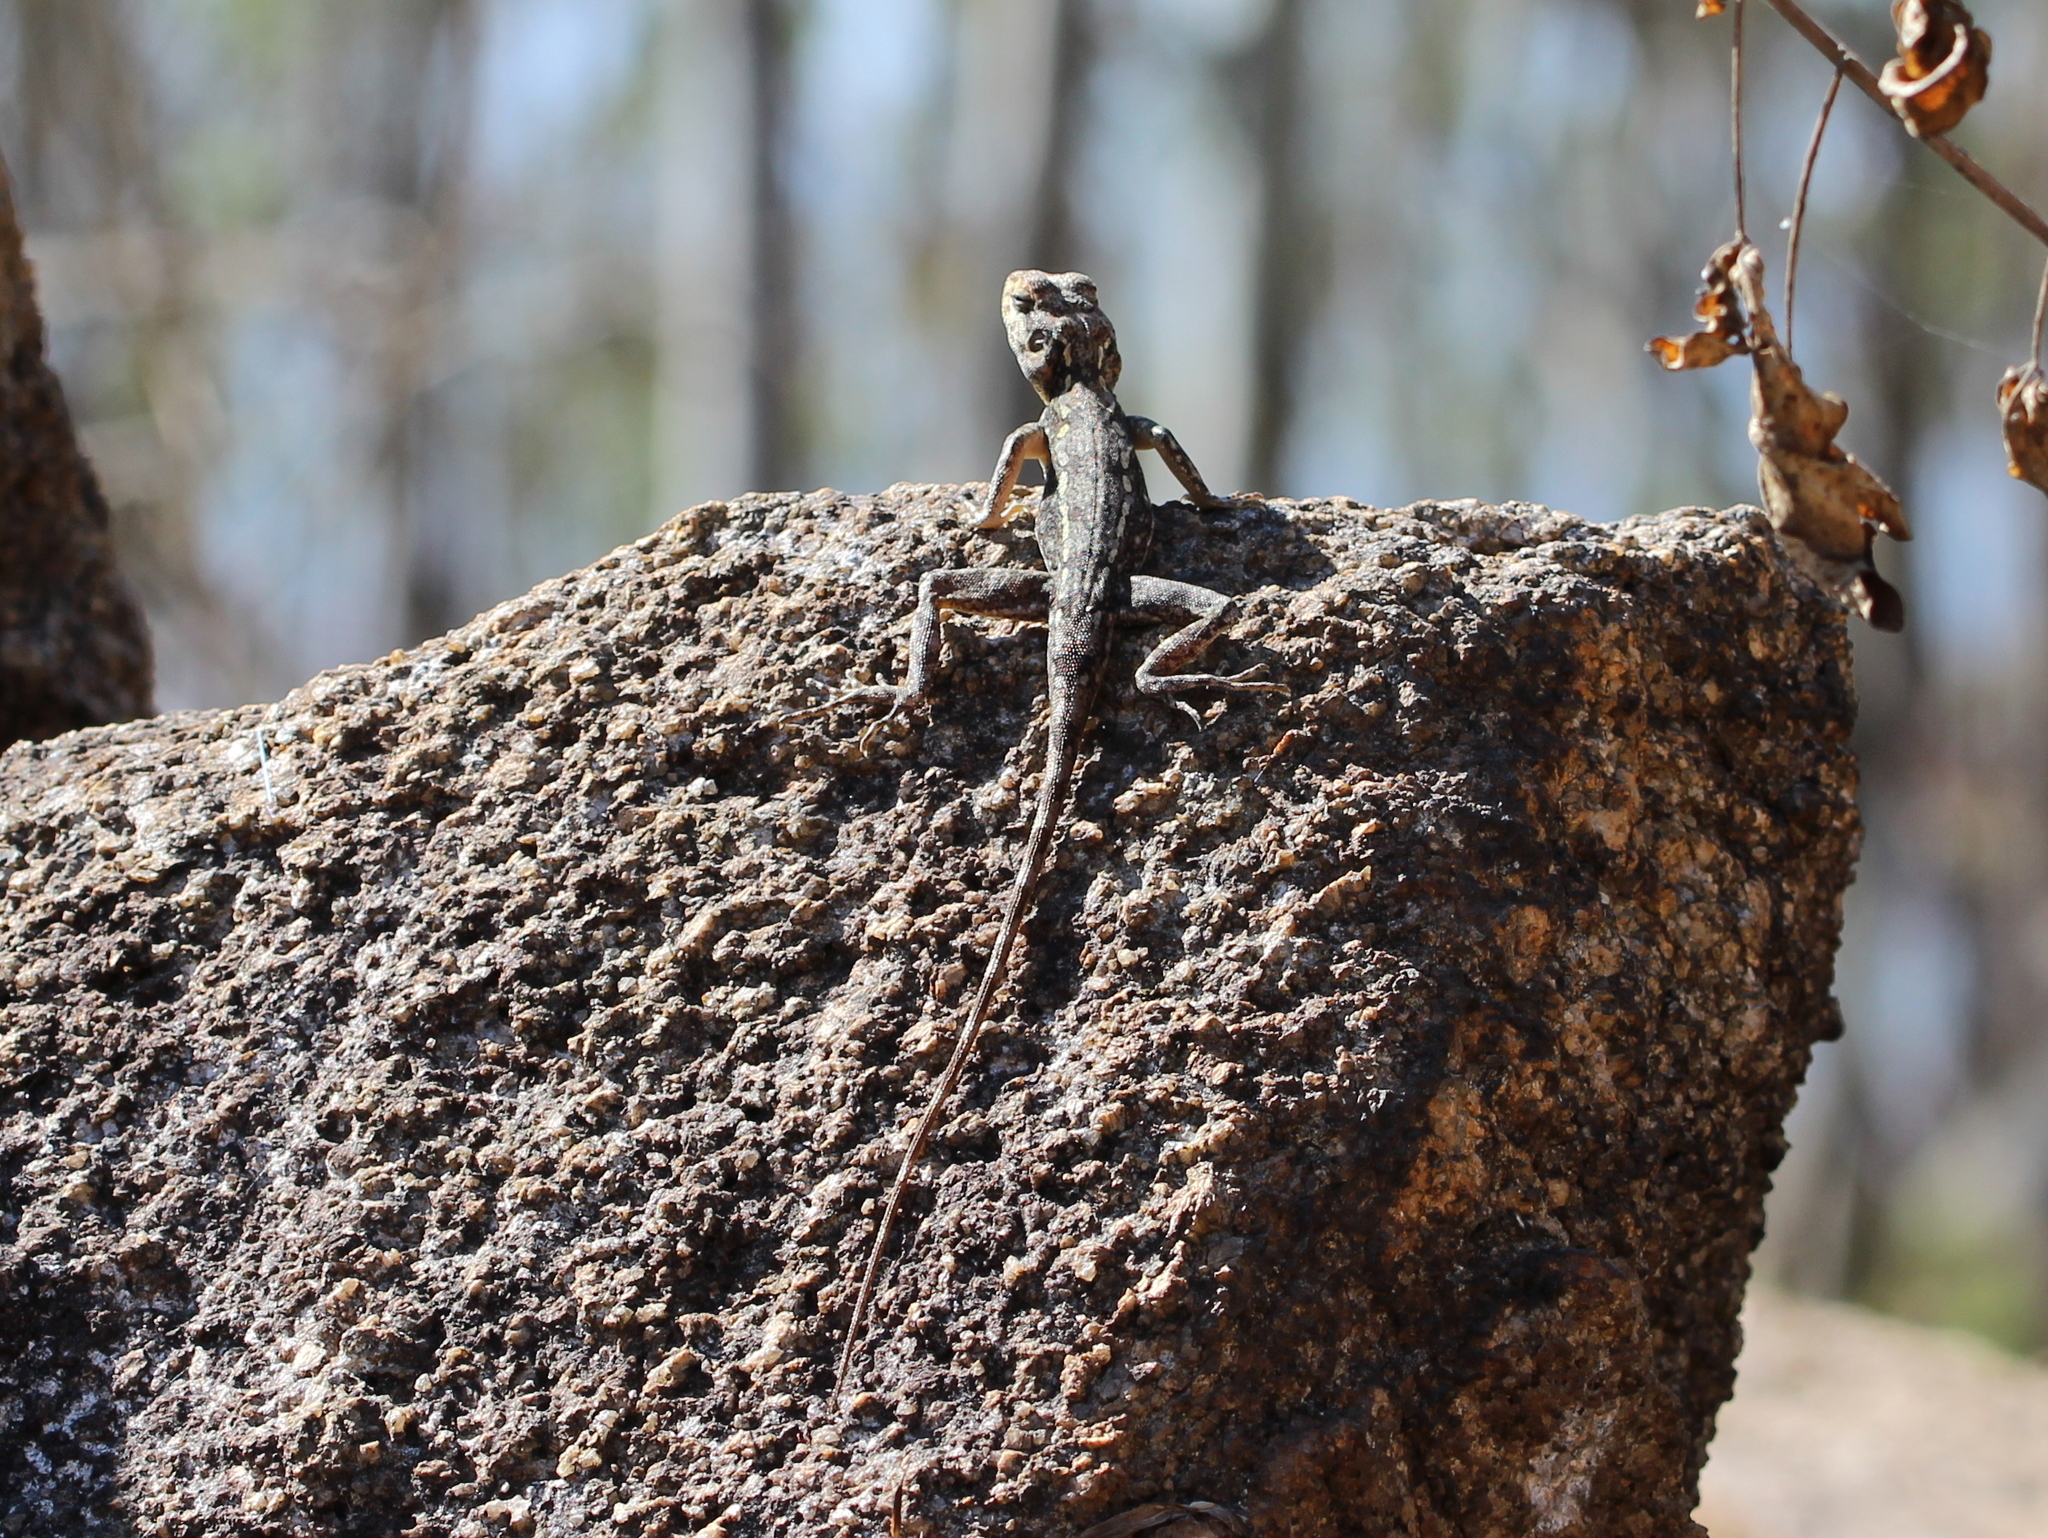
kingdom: Animalia
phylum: Chordata
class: Squamata
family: Agamidae
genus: Calotes
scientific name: Calotes versicolor
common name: Oriental garden lizard
